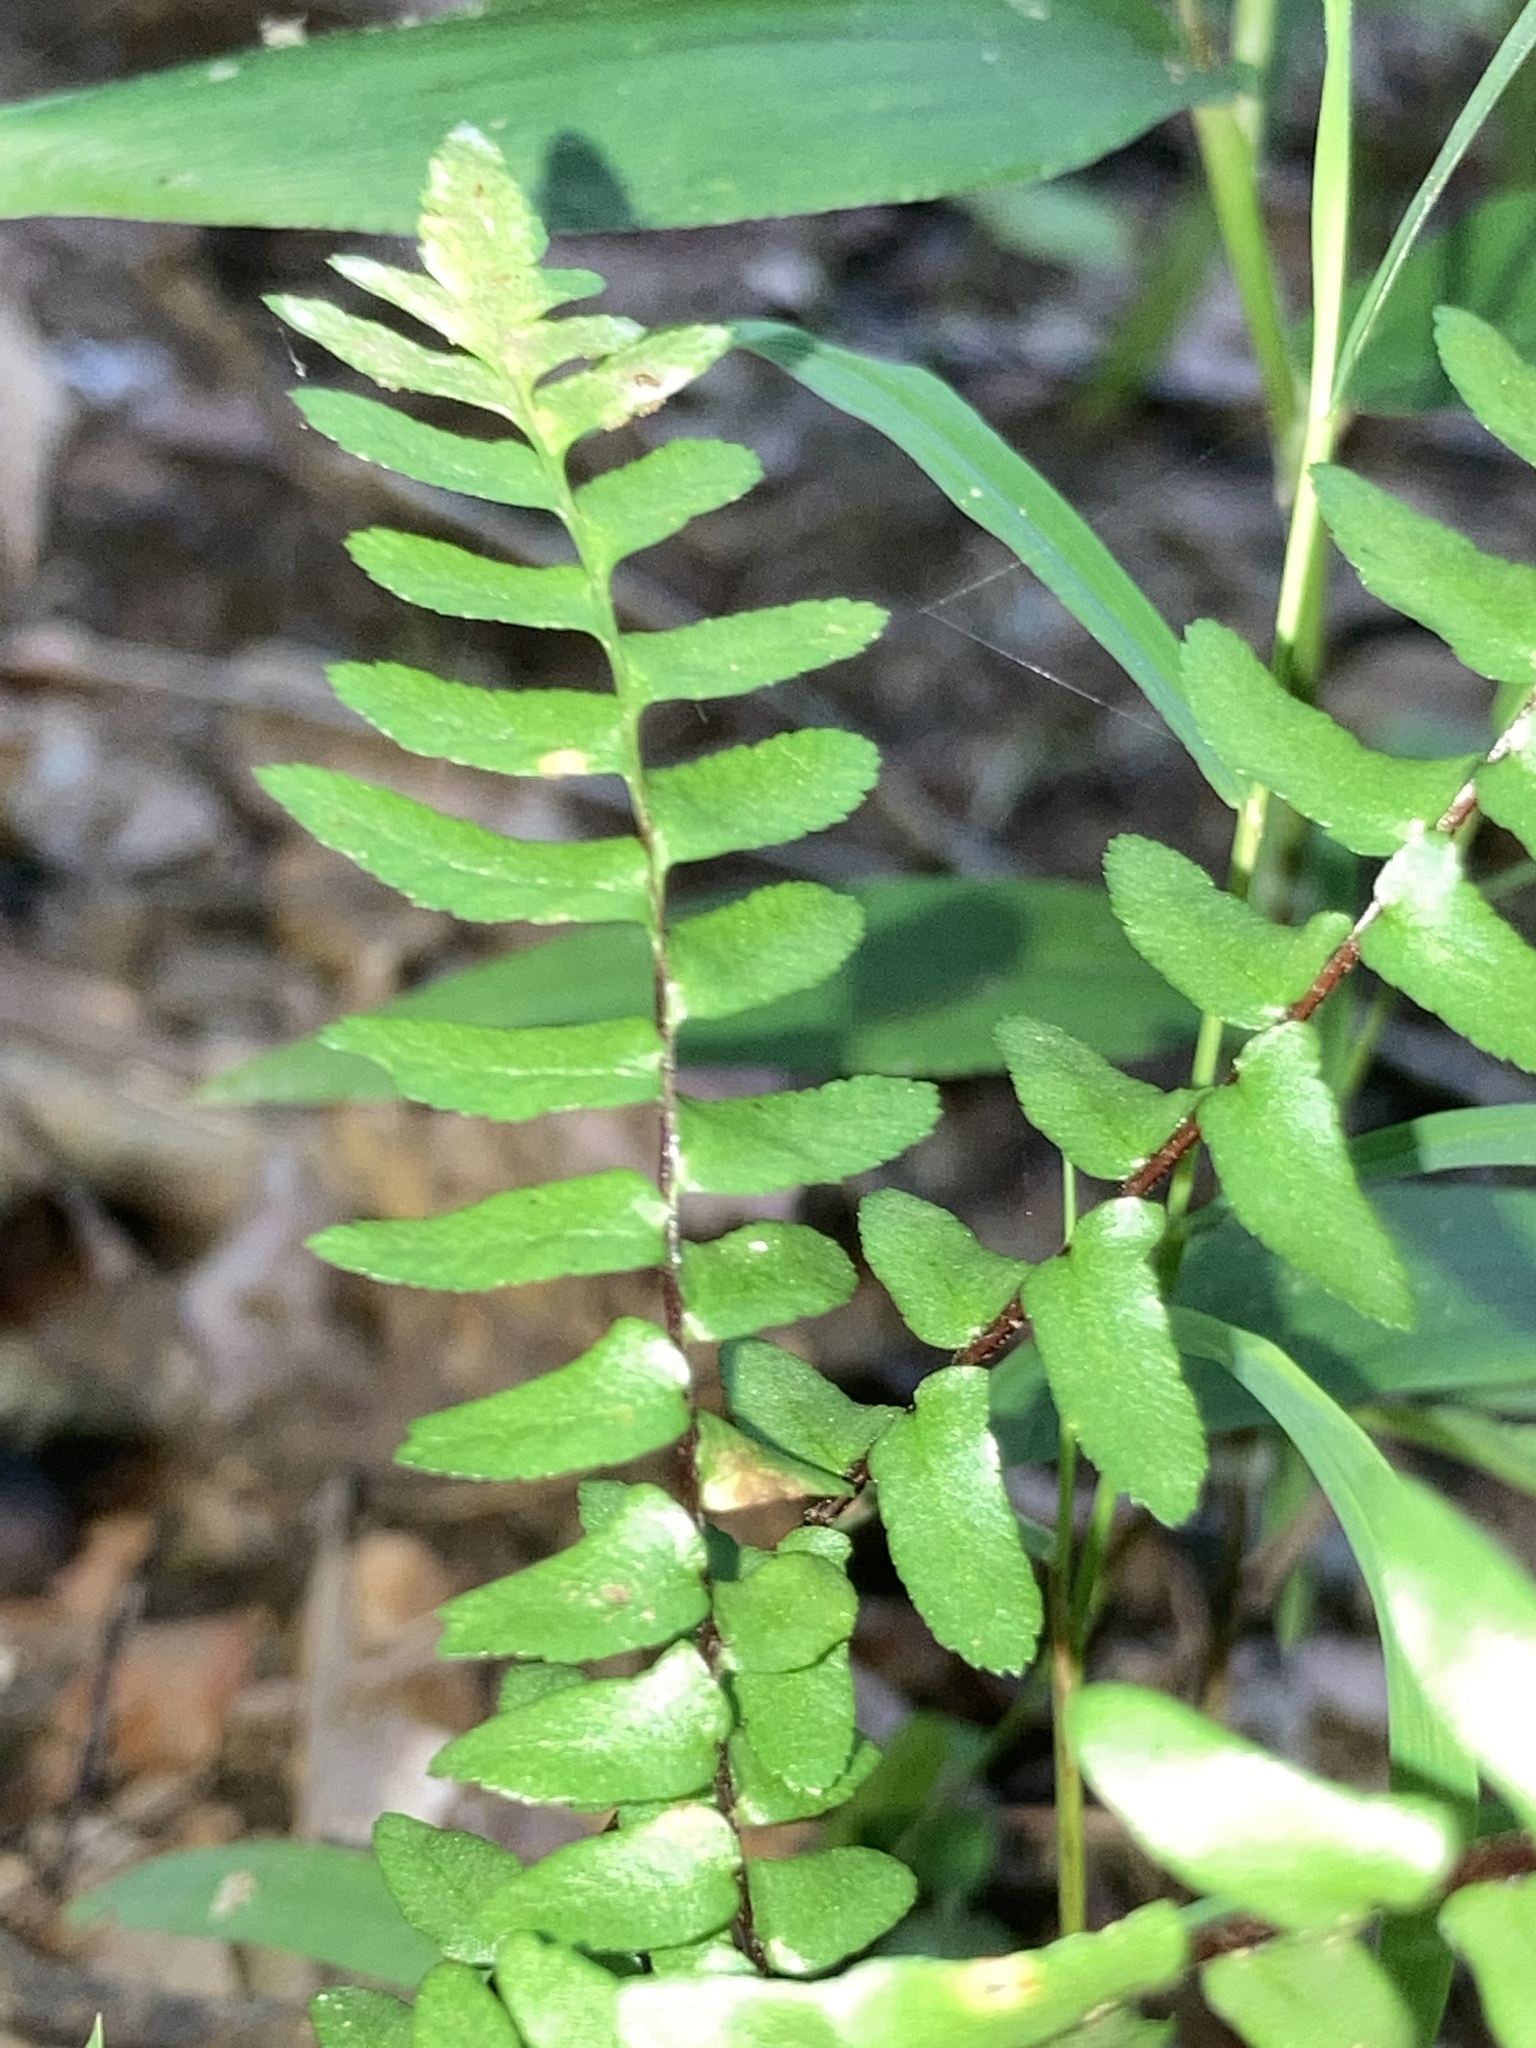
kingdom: Plantae
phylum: Tracheophyta
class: Polypodiopsida
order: Polypodiales
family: Aspleniaceae
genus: Asplenium
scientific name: Asplenium platyneuron
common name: Ebony spleenwort
